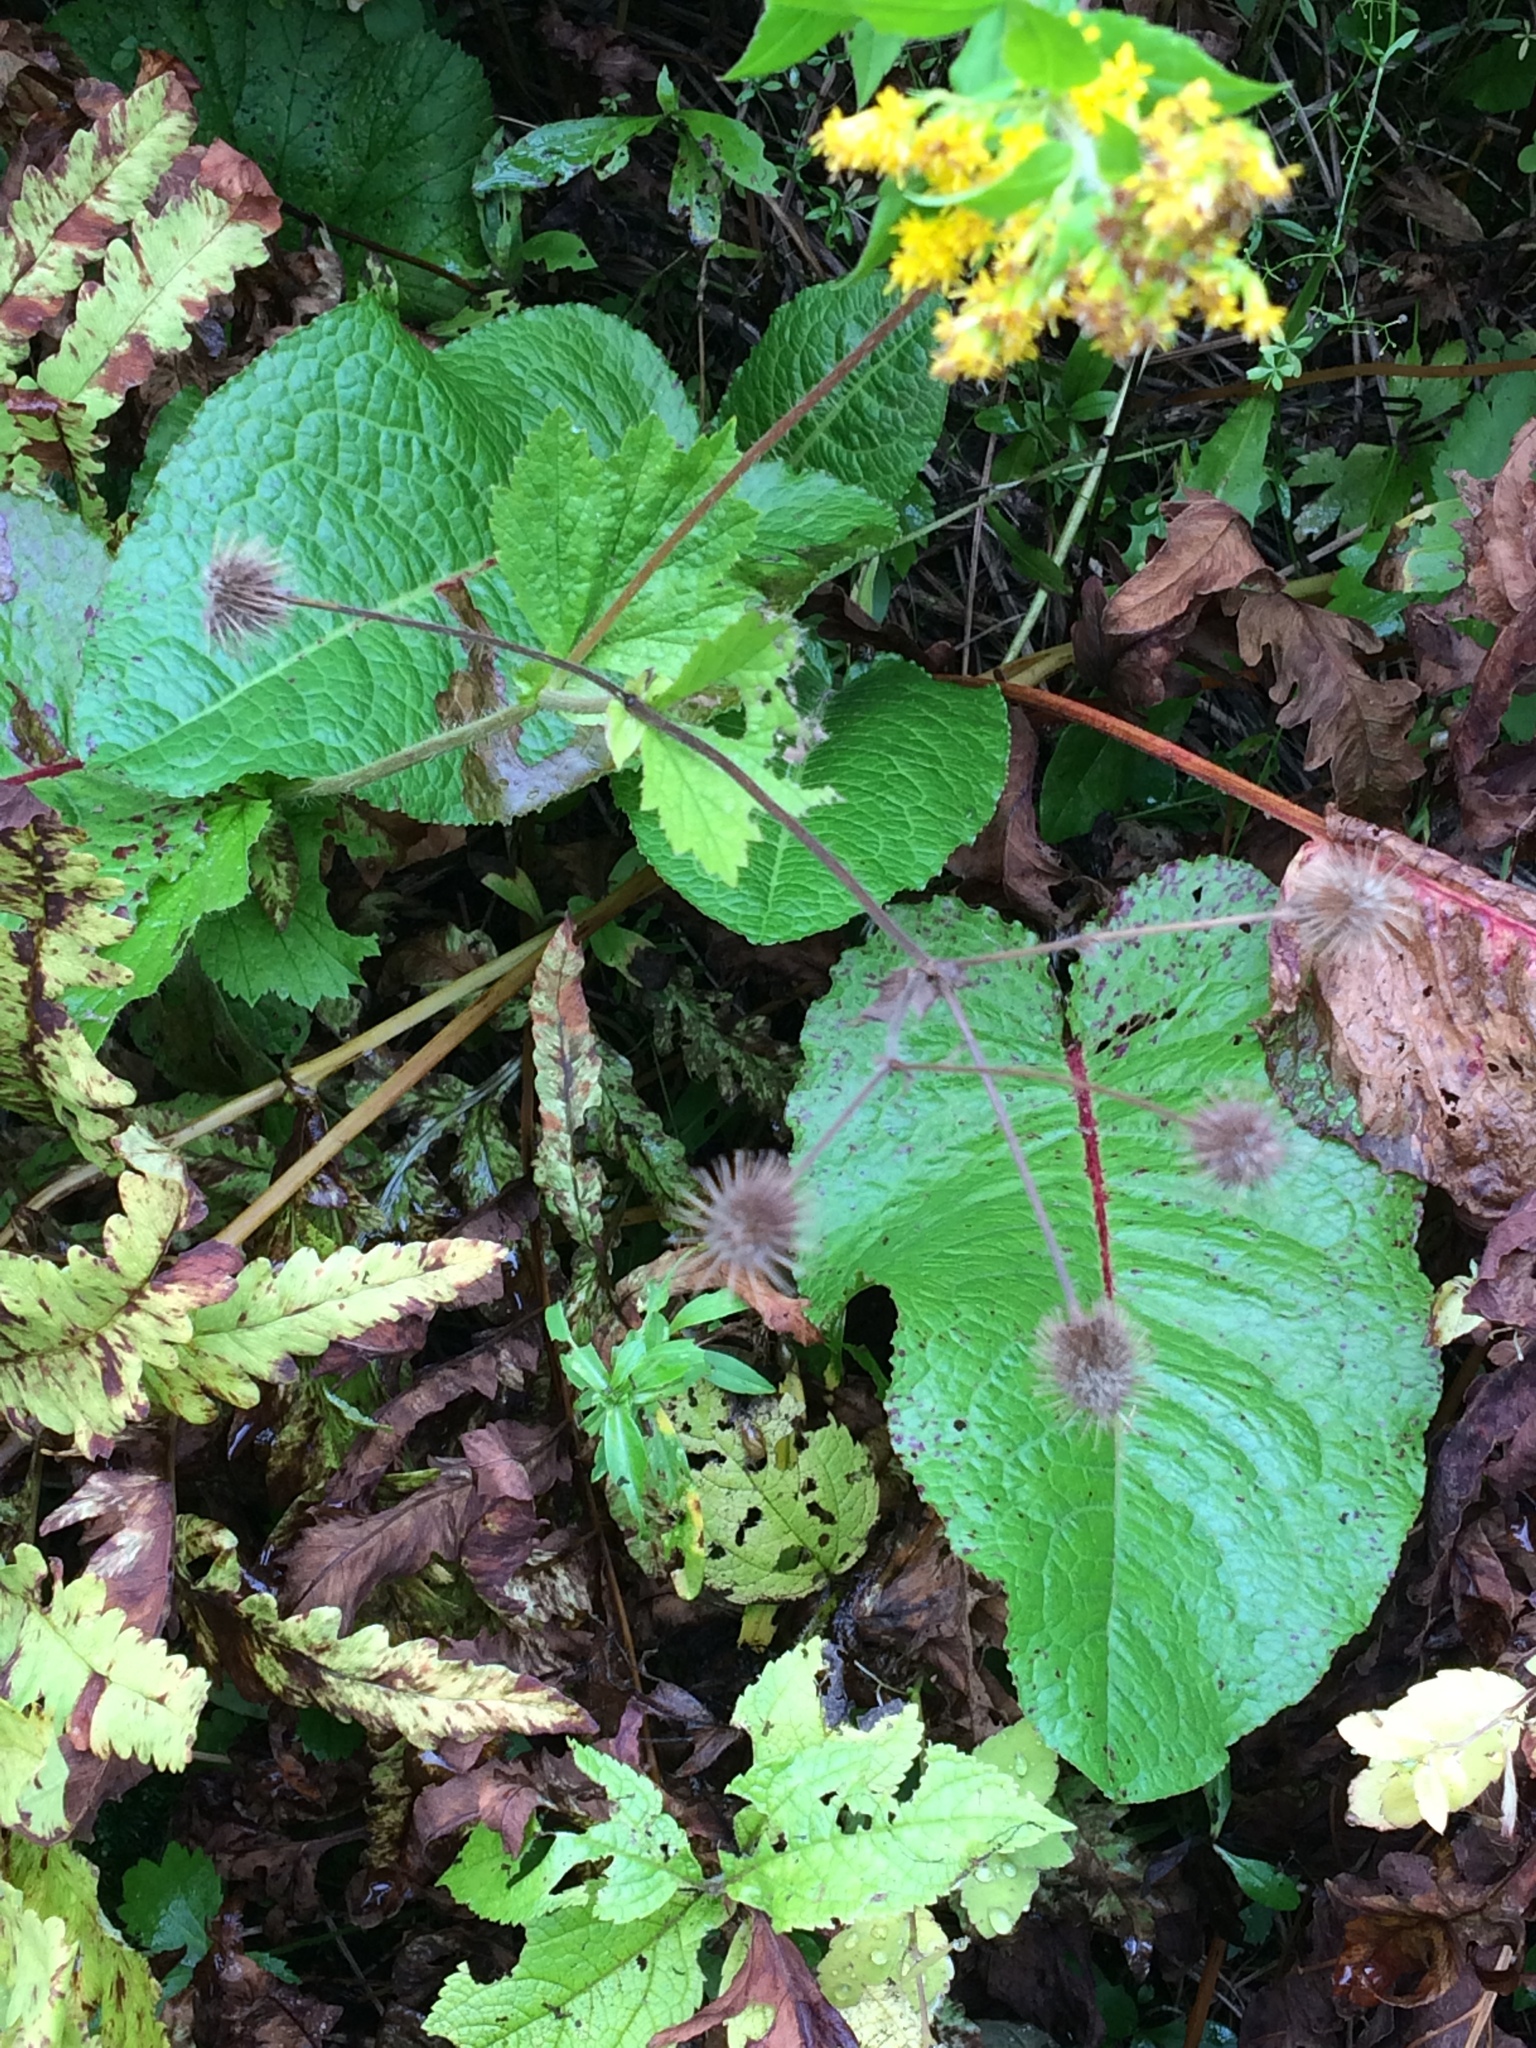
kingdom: Plantae
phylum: Tracheophyta
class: Magnoliopsida
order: Caryophyllales
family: Polygonaceae
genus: Rumex
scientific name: Rumex obtusifolius
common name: Bitter dock
